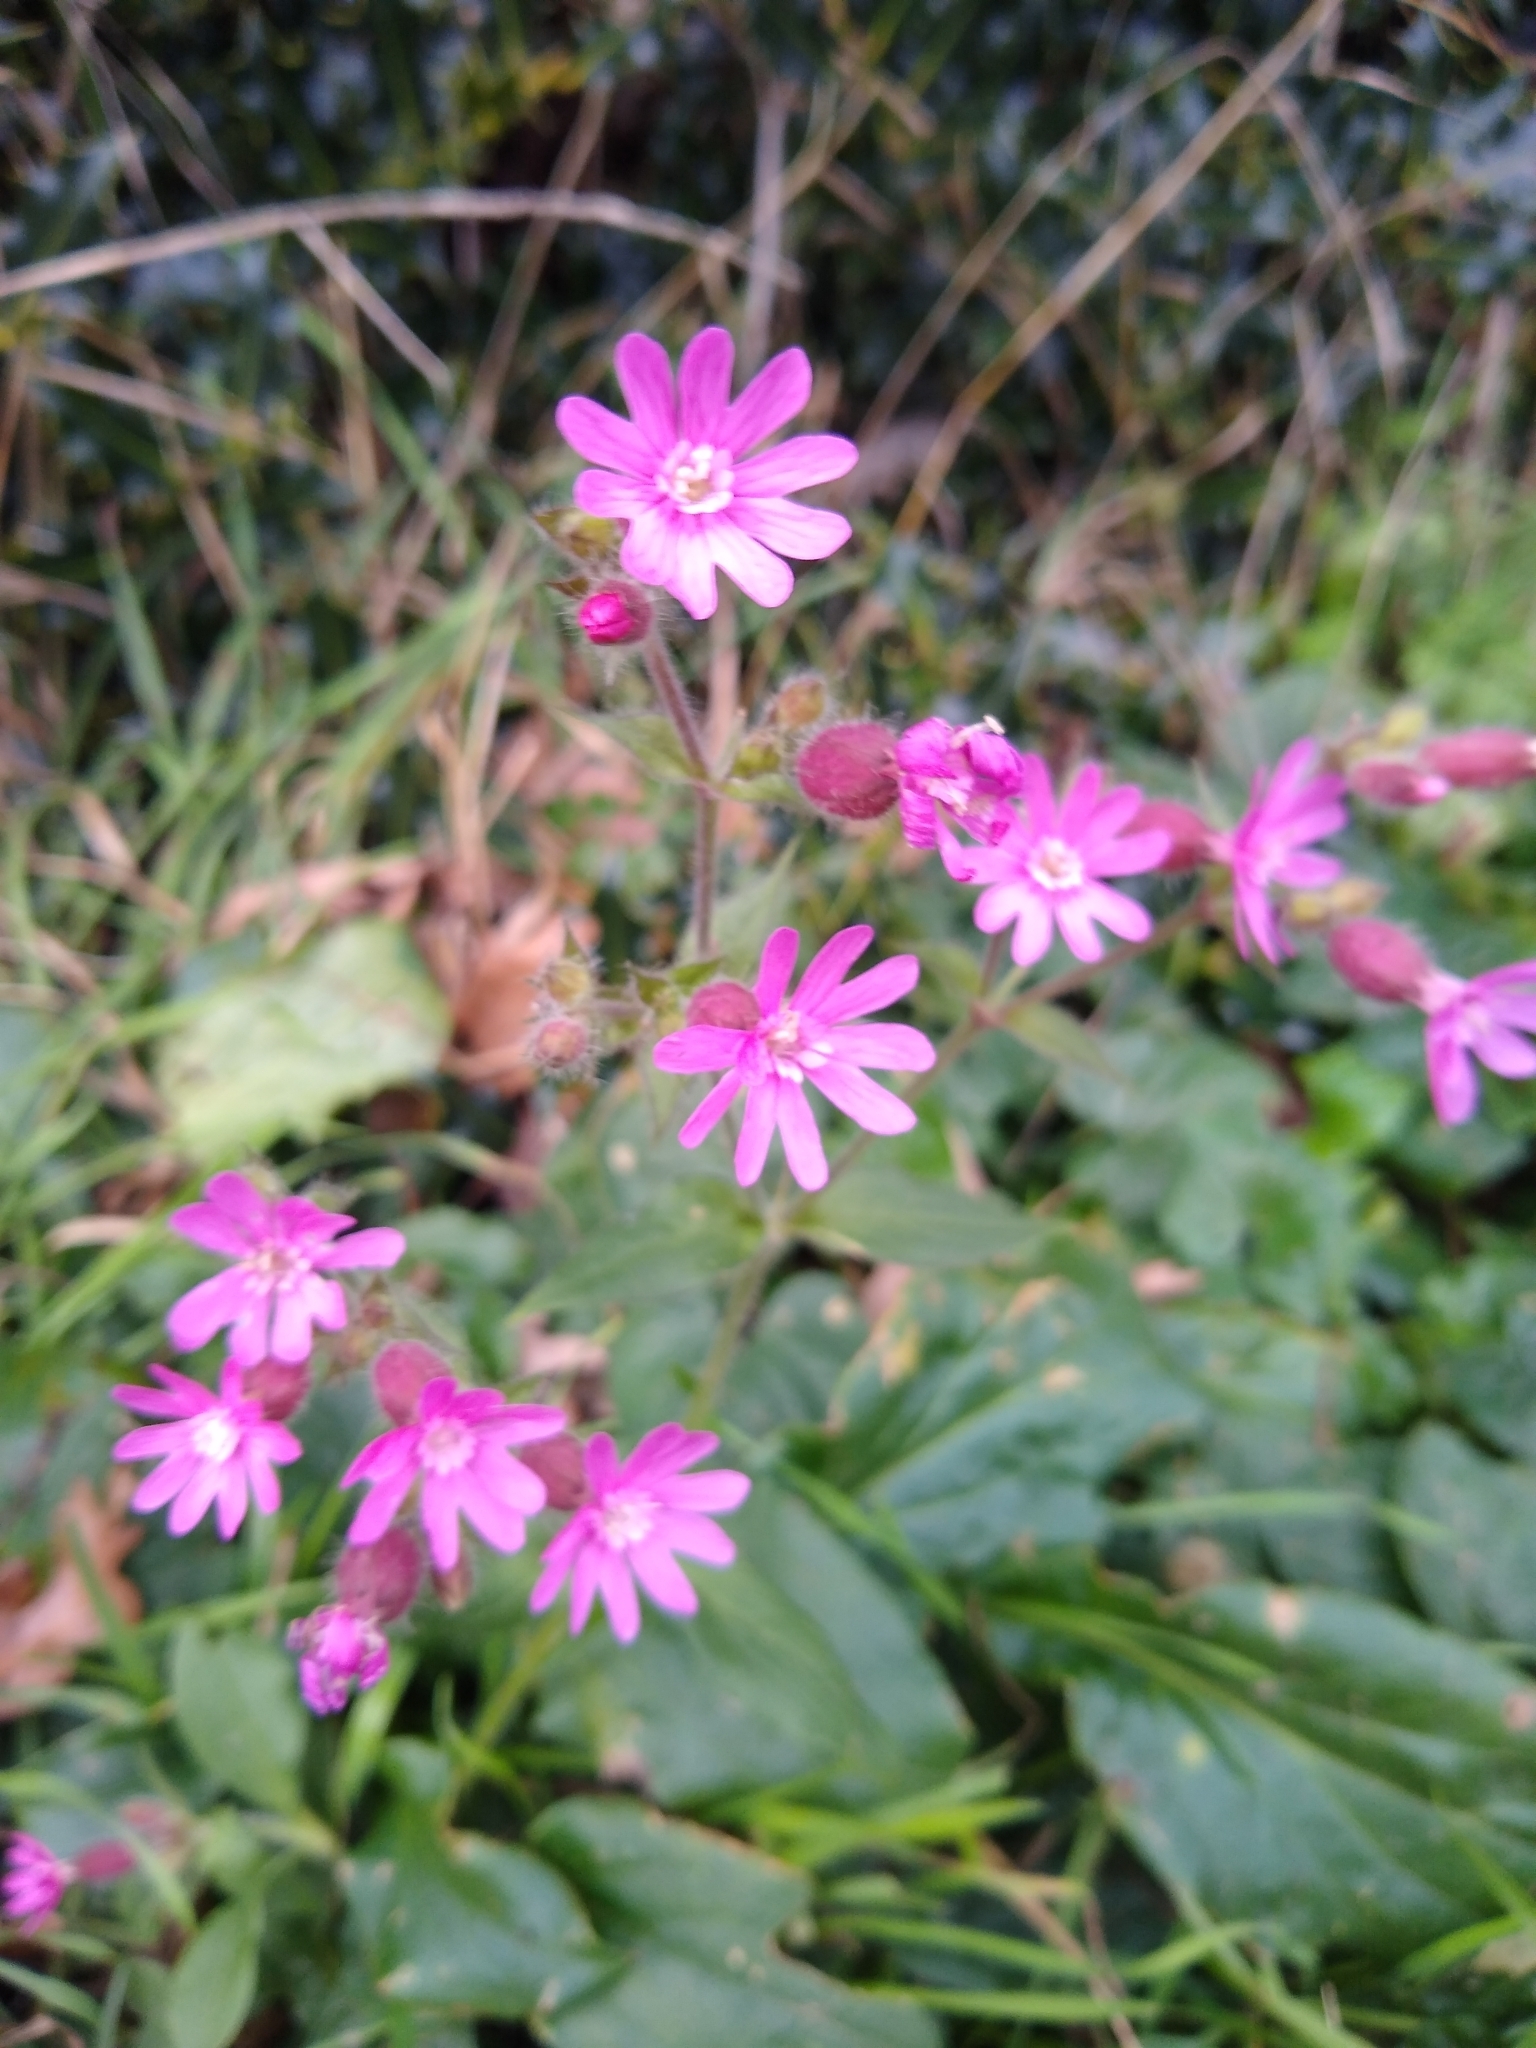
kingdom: Plantae
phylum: Tracheophyta
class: Magnoliopsida
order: Caryophyllales
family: Caryophyllaceae
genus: Silene
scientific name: Silene dioica
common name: Red campion
